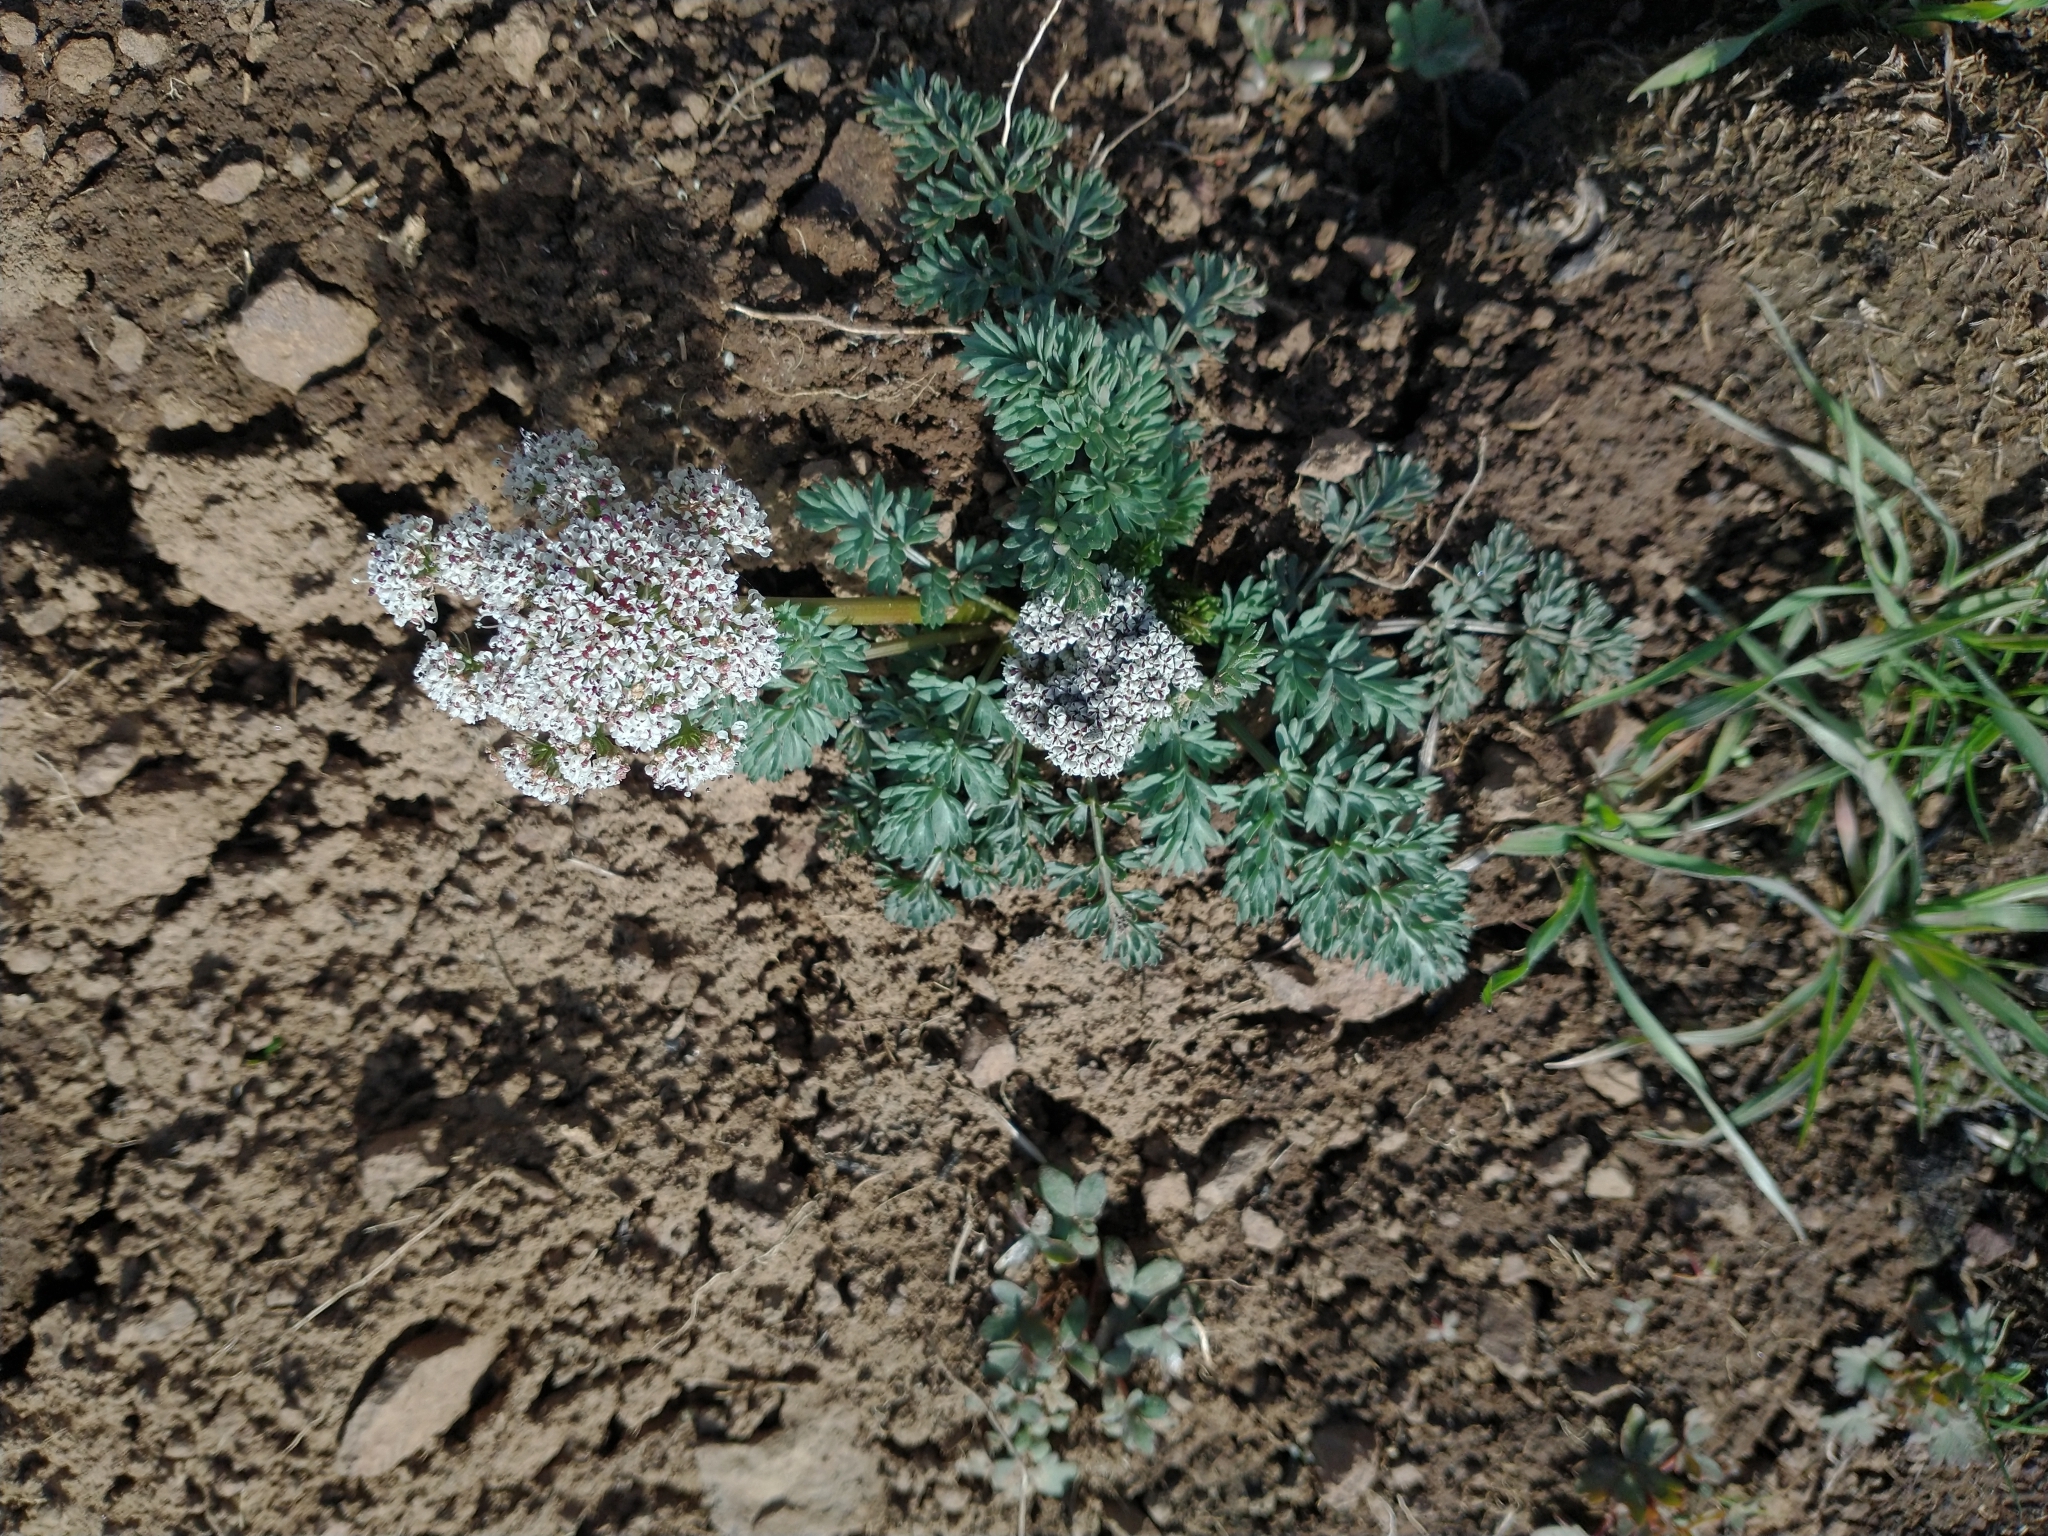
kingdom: Plantae
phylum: Tracheophyta
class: Magnoliopsida
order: Apiales
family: Apiaceae
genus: Lomatium
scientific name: Lomatium canbyi
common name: Chucklusa
